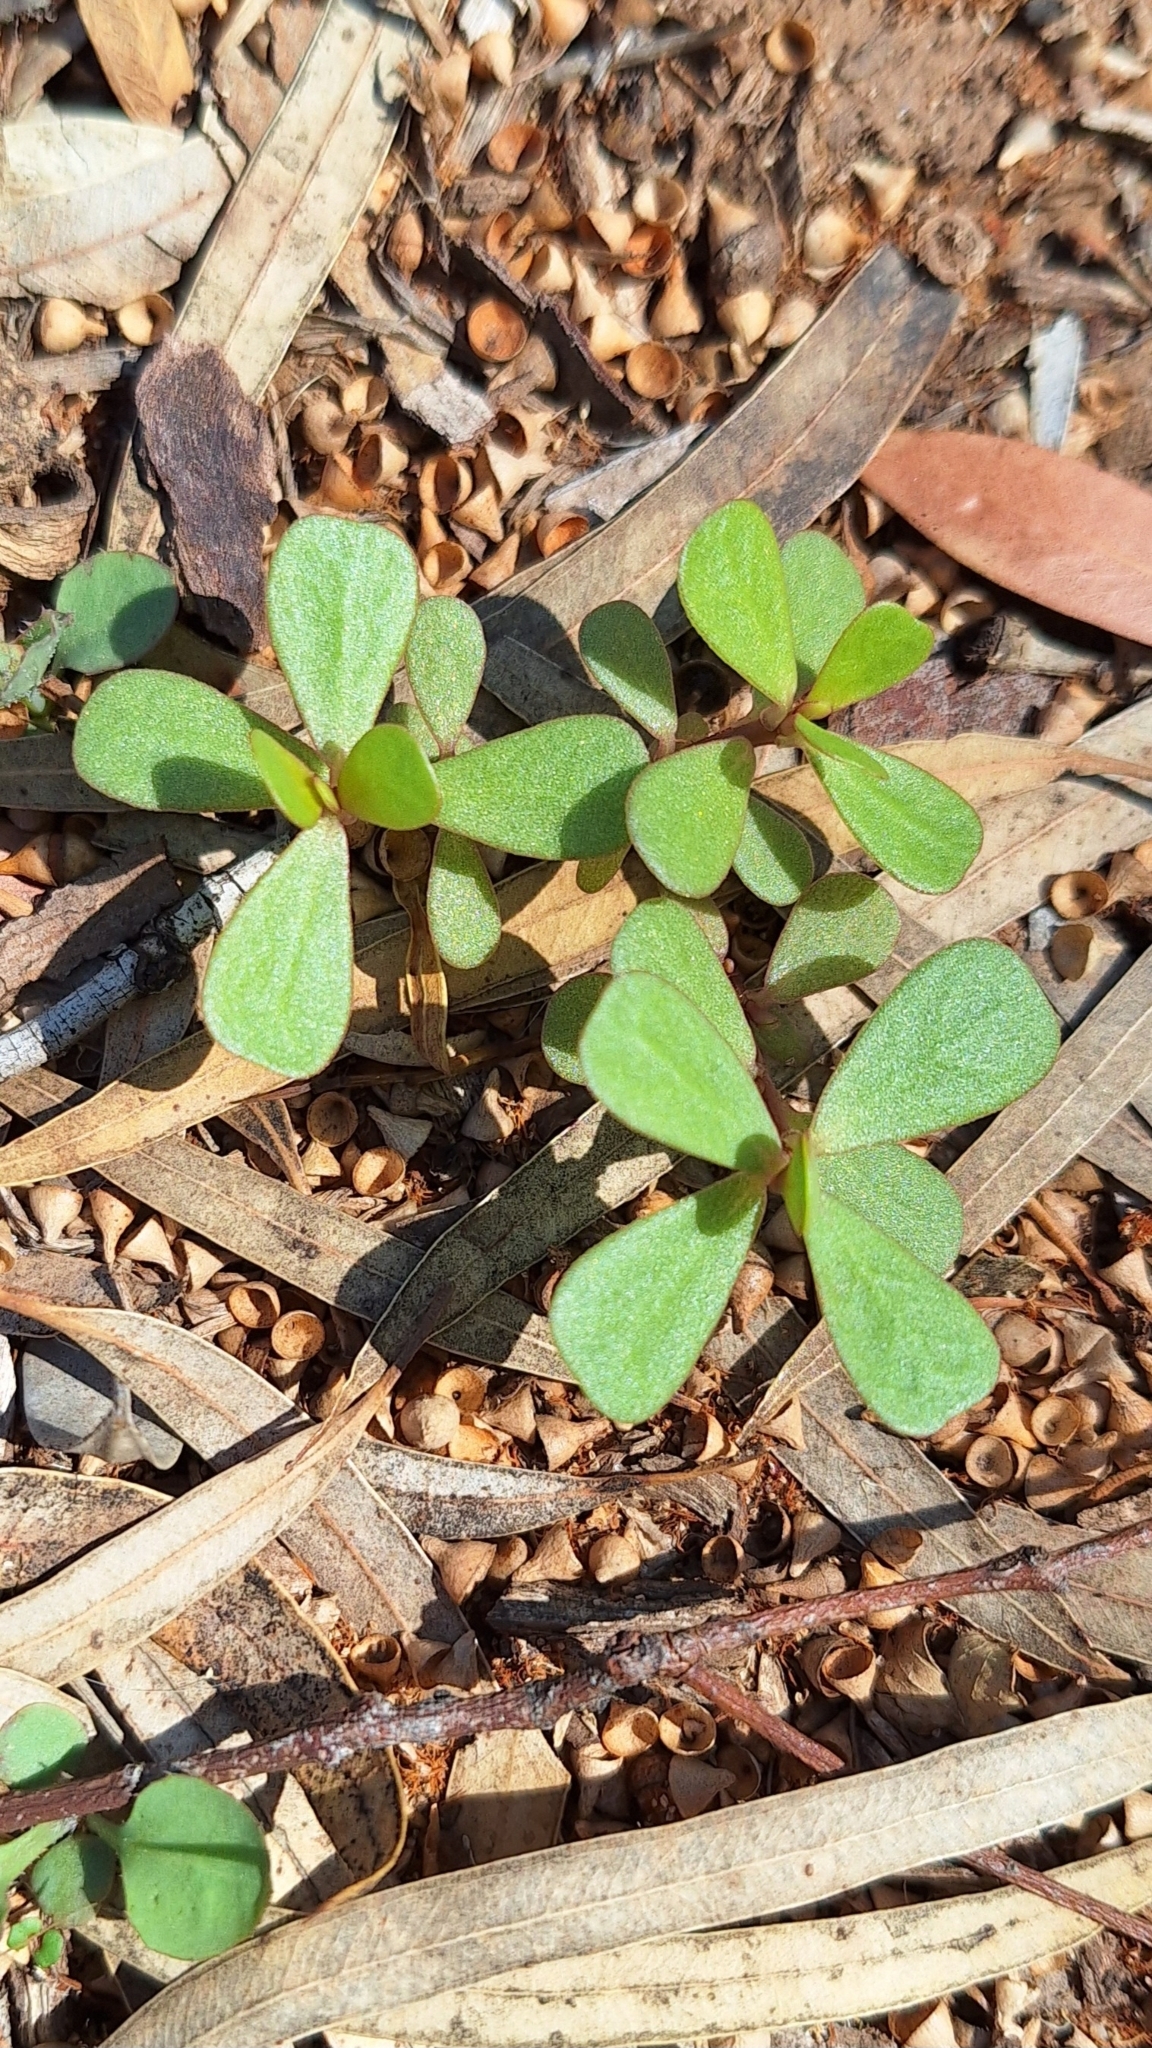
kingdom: Plantae
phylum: Tracheophyta
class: Magnoliopsida
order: Caryophyllales
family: Portulacaceae
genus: Portulaca
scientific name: Portulaca oleracea
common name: Common purslane
